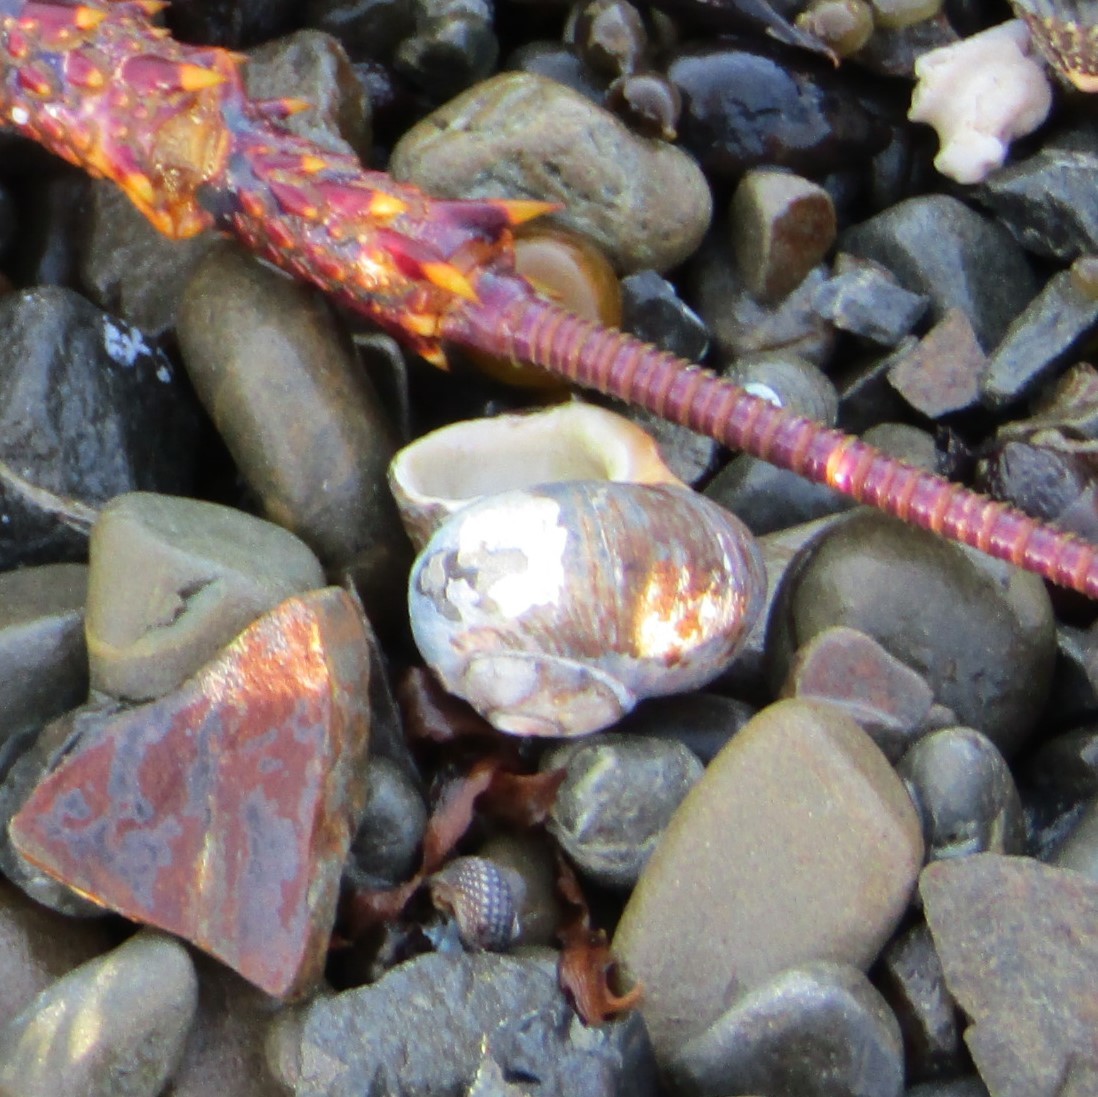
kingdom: Animalia
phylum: Mollusca
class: Gastropoda
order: Trochida
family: Turbinidae
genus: Lunella
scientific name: Lunella smaragda
